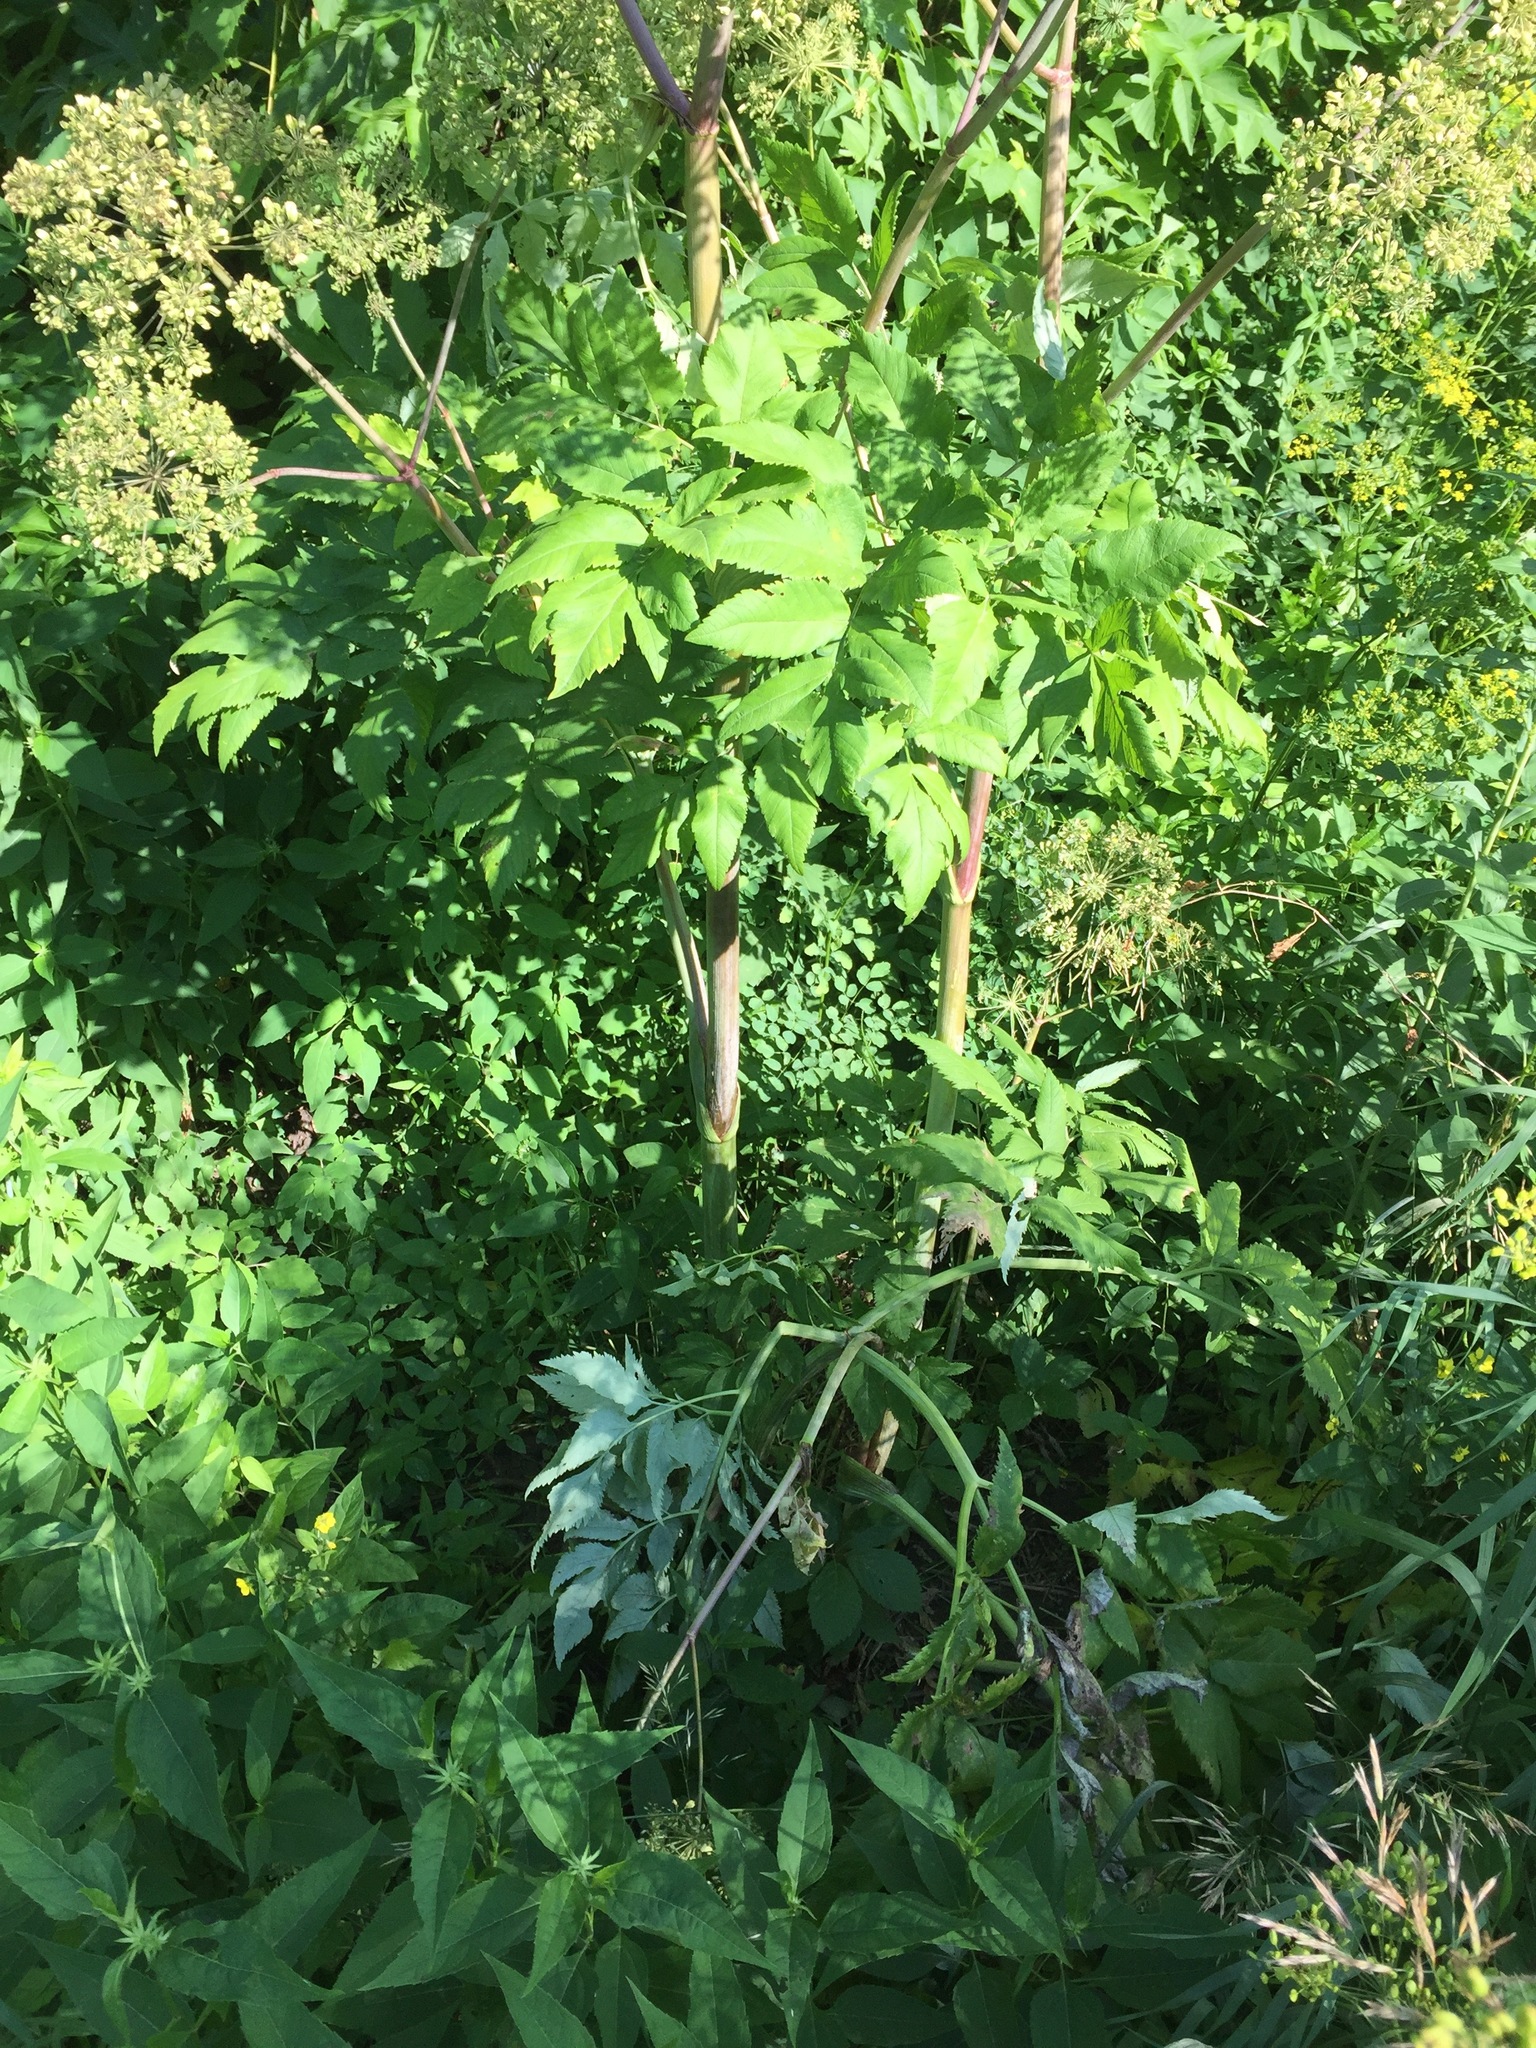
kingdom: Plantae
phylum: Tracheophyta
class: Magnoliopsida
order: Apiales
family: Apiaceae
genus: Angelica
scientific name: Angelica atropurpurea
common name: Great angelica
